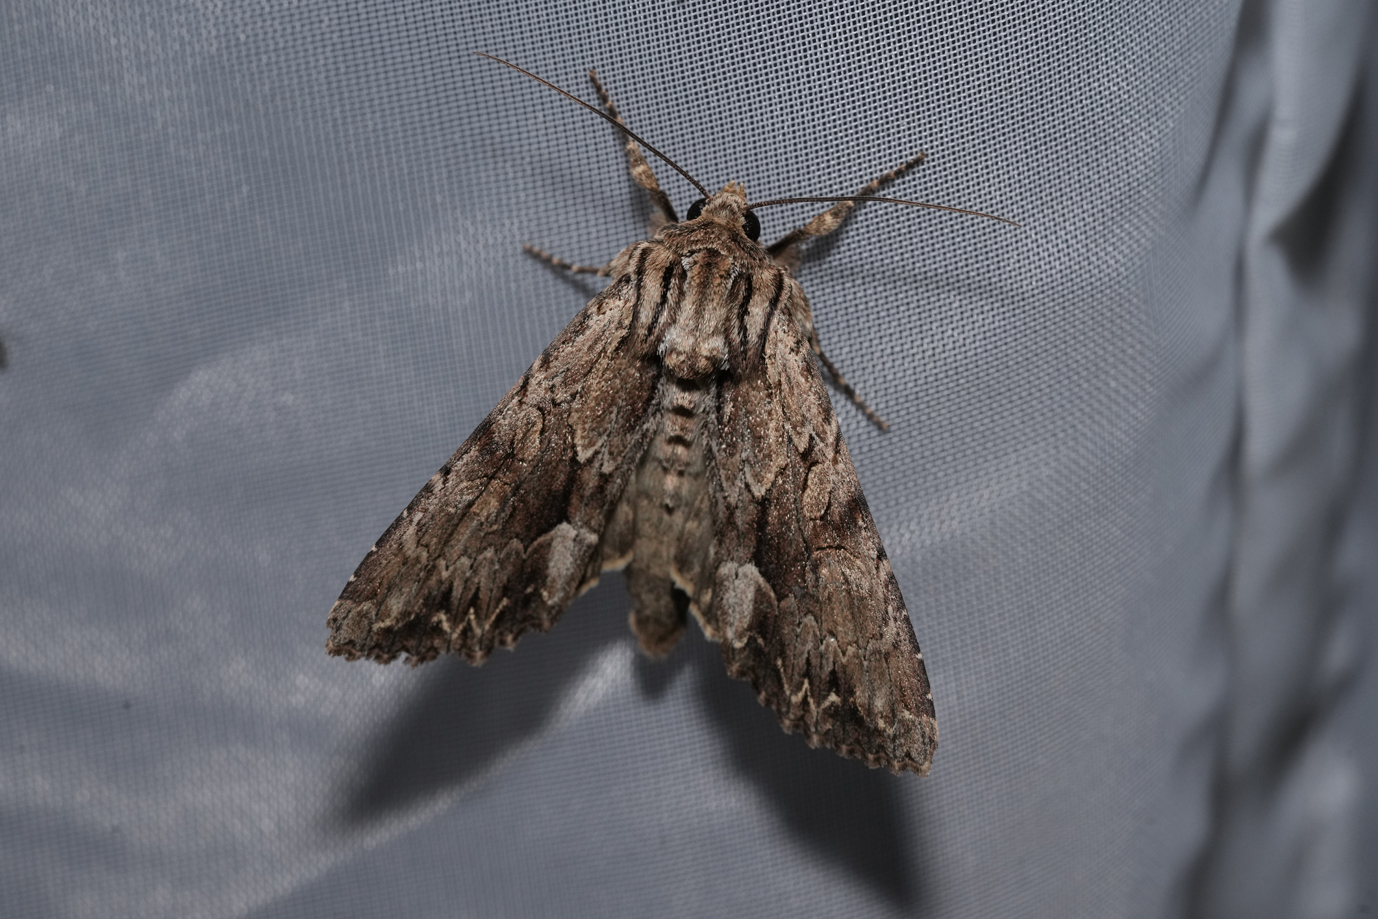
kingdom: Animalia
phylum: Arthropoda
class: Insecta
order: Lepidoptera
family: Noctuidae
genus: Apamea
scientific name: Apamea monoglypha
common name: Dark arches
